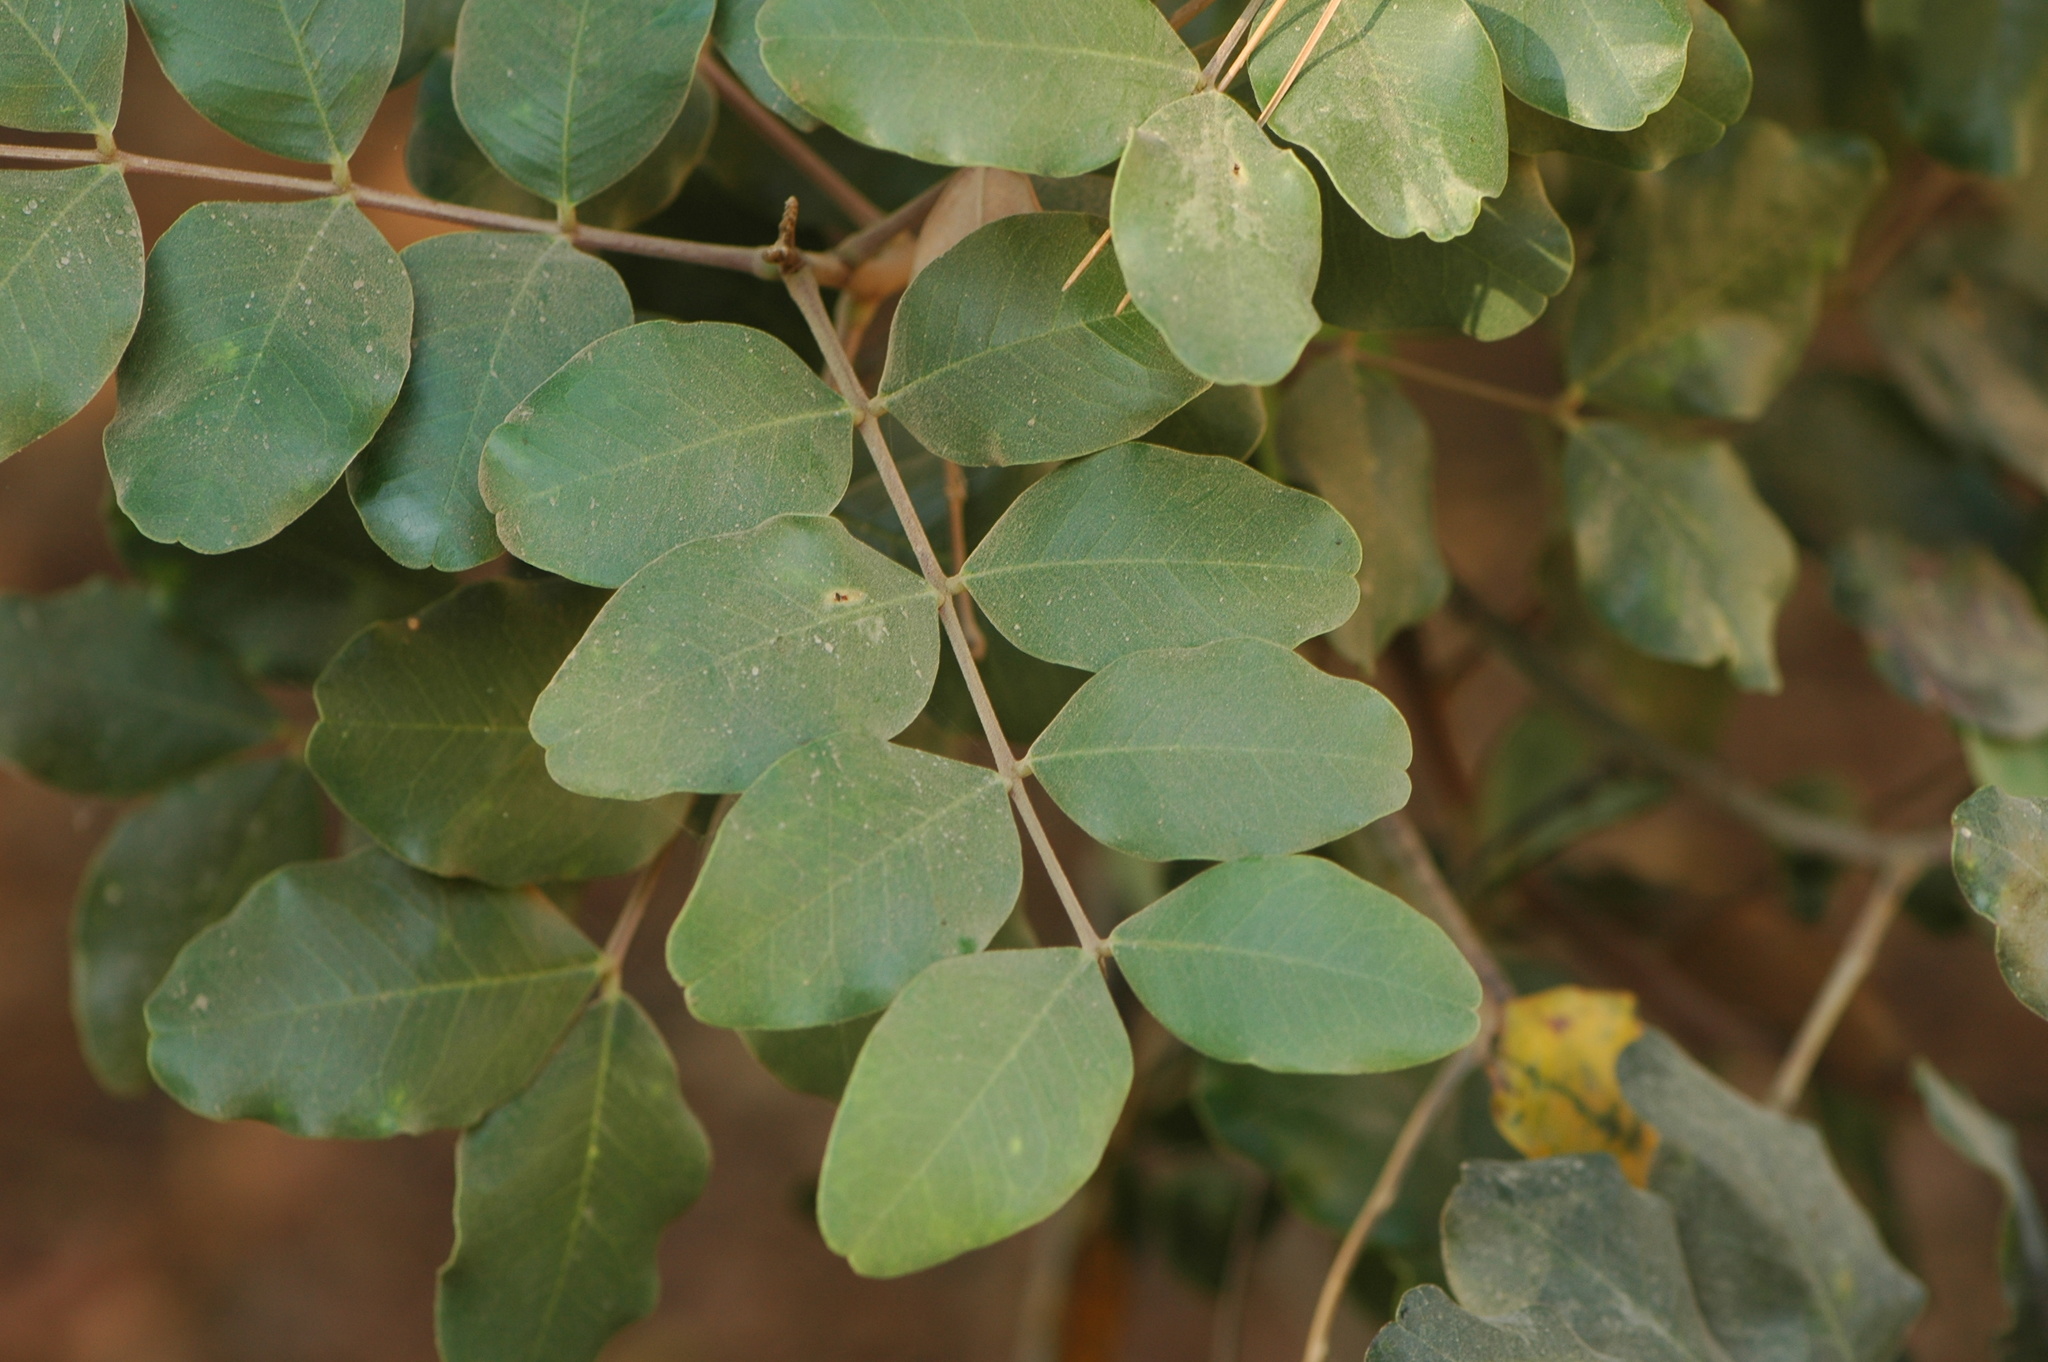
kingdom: Plantae
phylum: Tracheophyta
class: Magnoliopsida
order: Fabales
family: Fabaceae
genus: Ceratonia
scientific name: Ceratonia siliqua
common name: Carob
